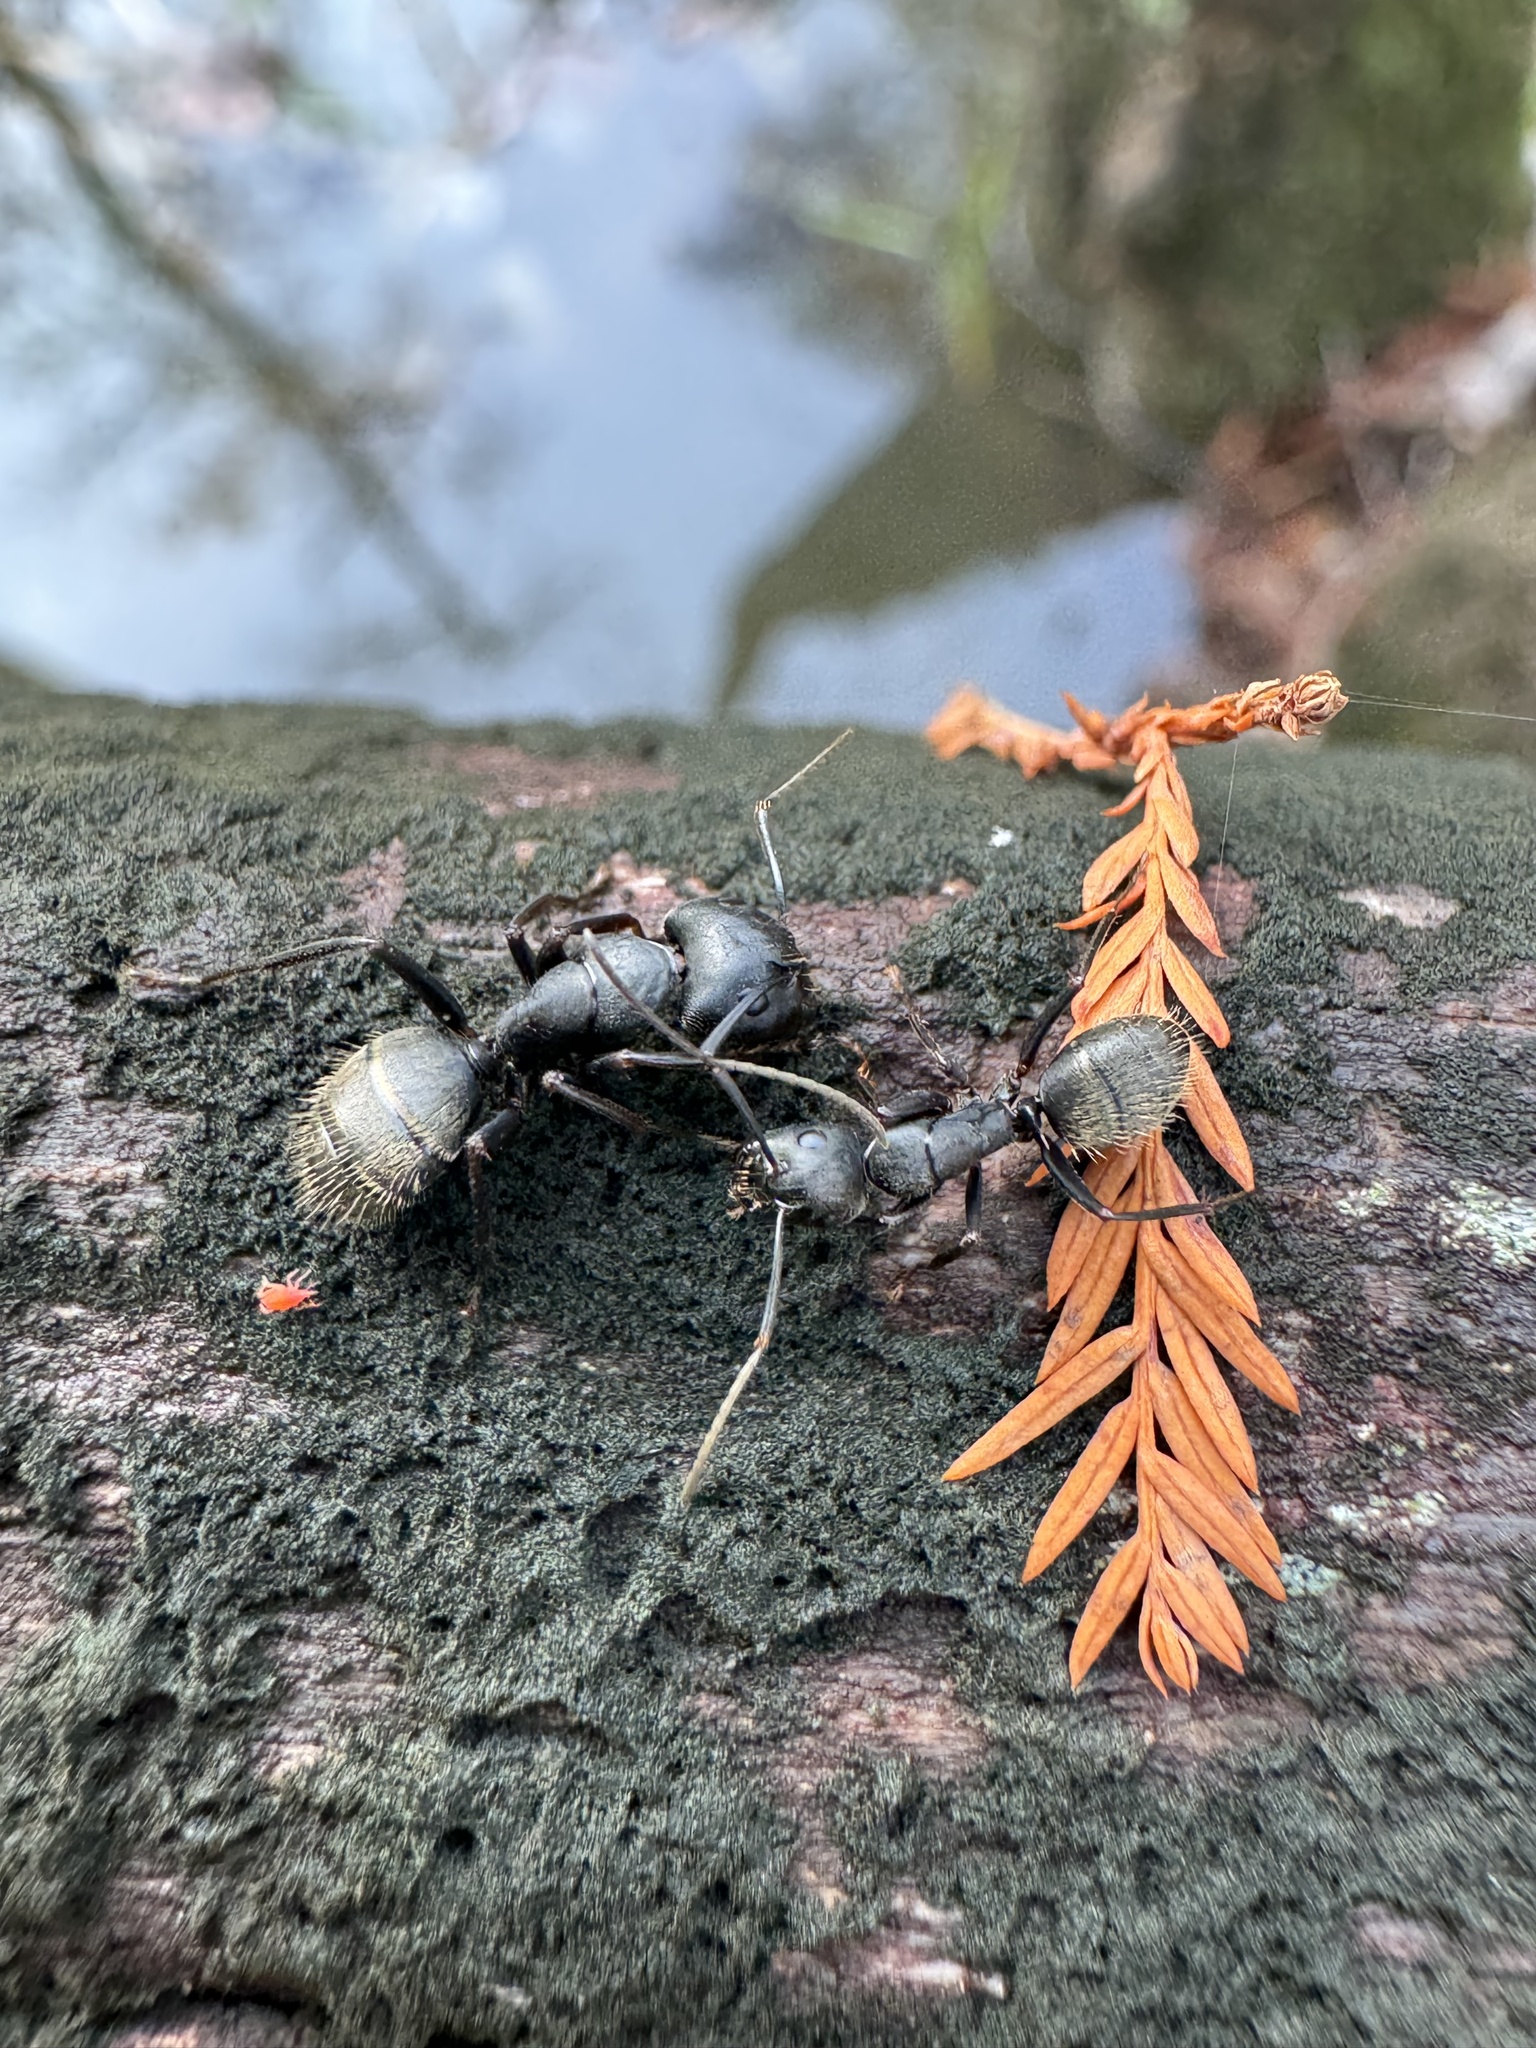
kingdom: Animalia
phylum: Arthropoda
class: Insecta
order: Hymenoptera
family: Formicidae
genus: Camponotus
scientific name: Camponotus pennsylvanicus
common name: Black carpenter ant
